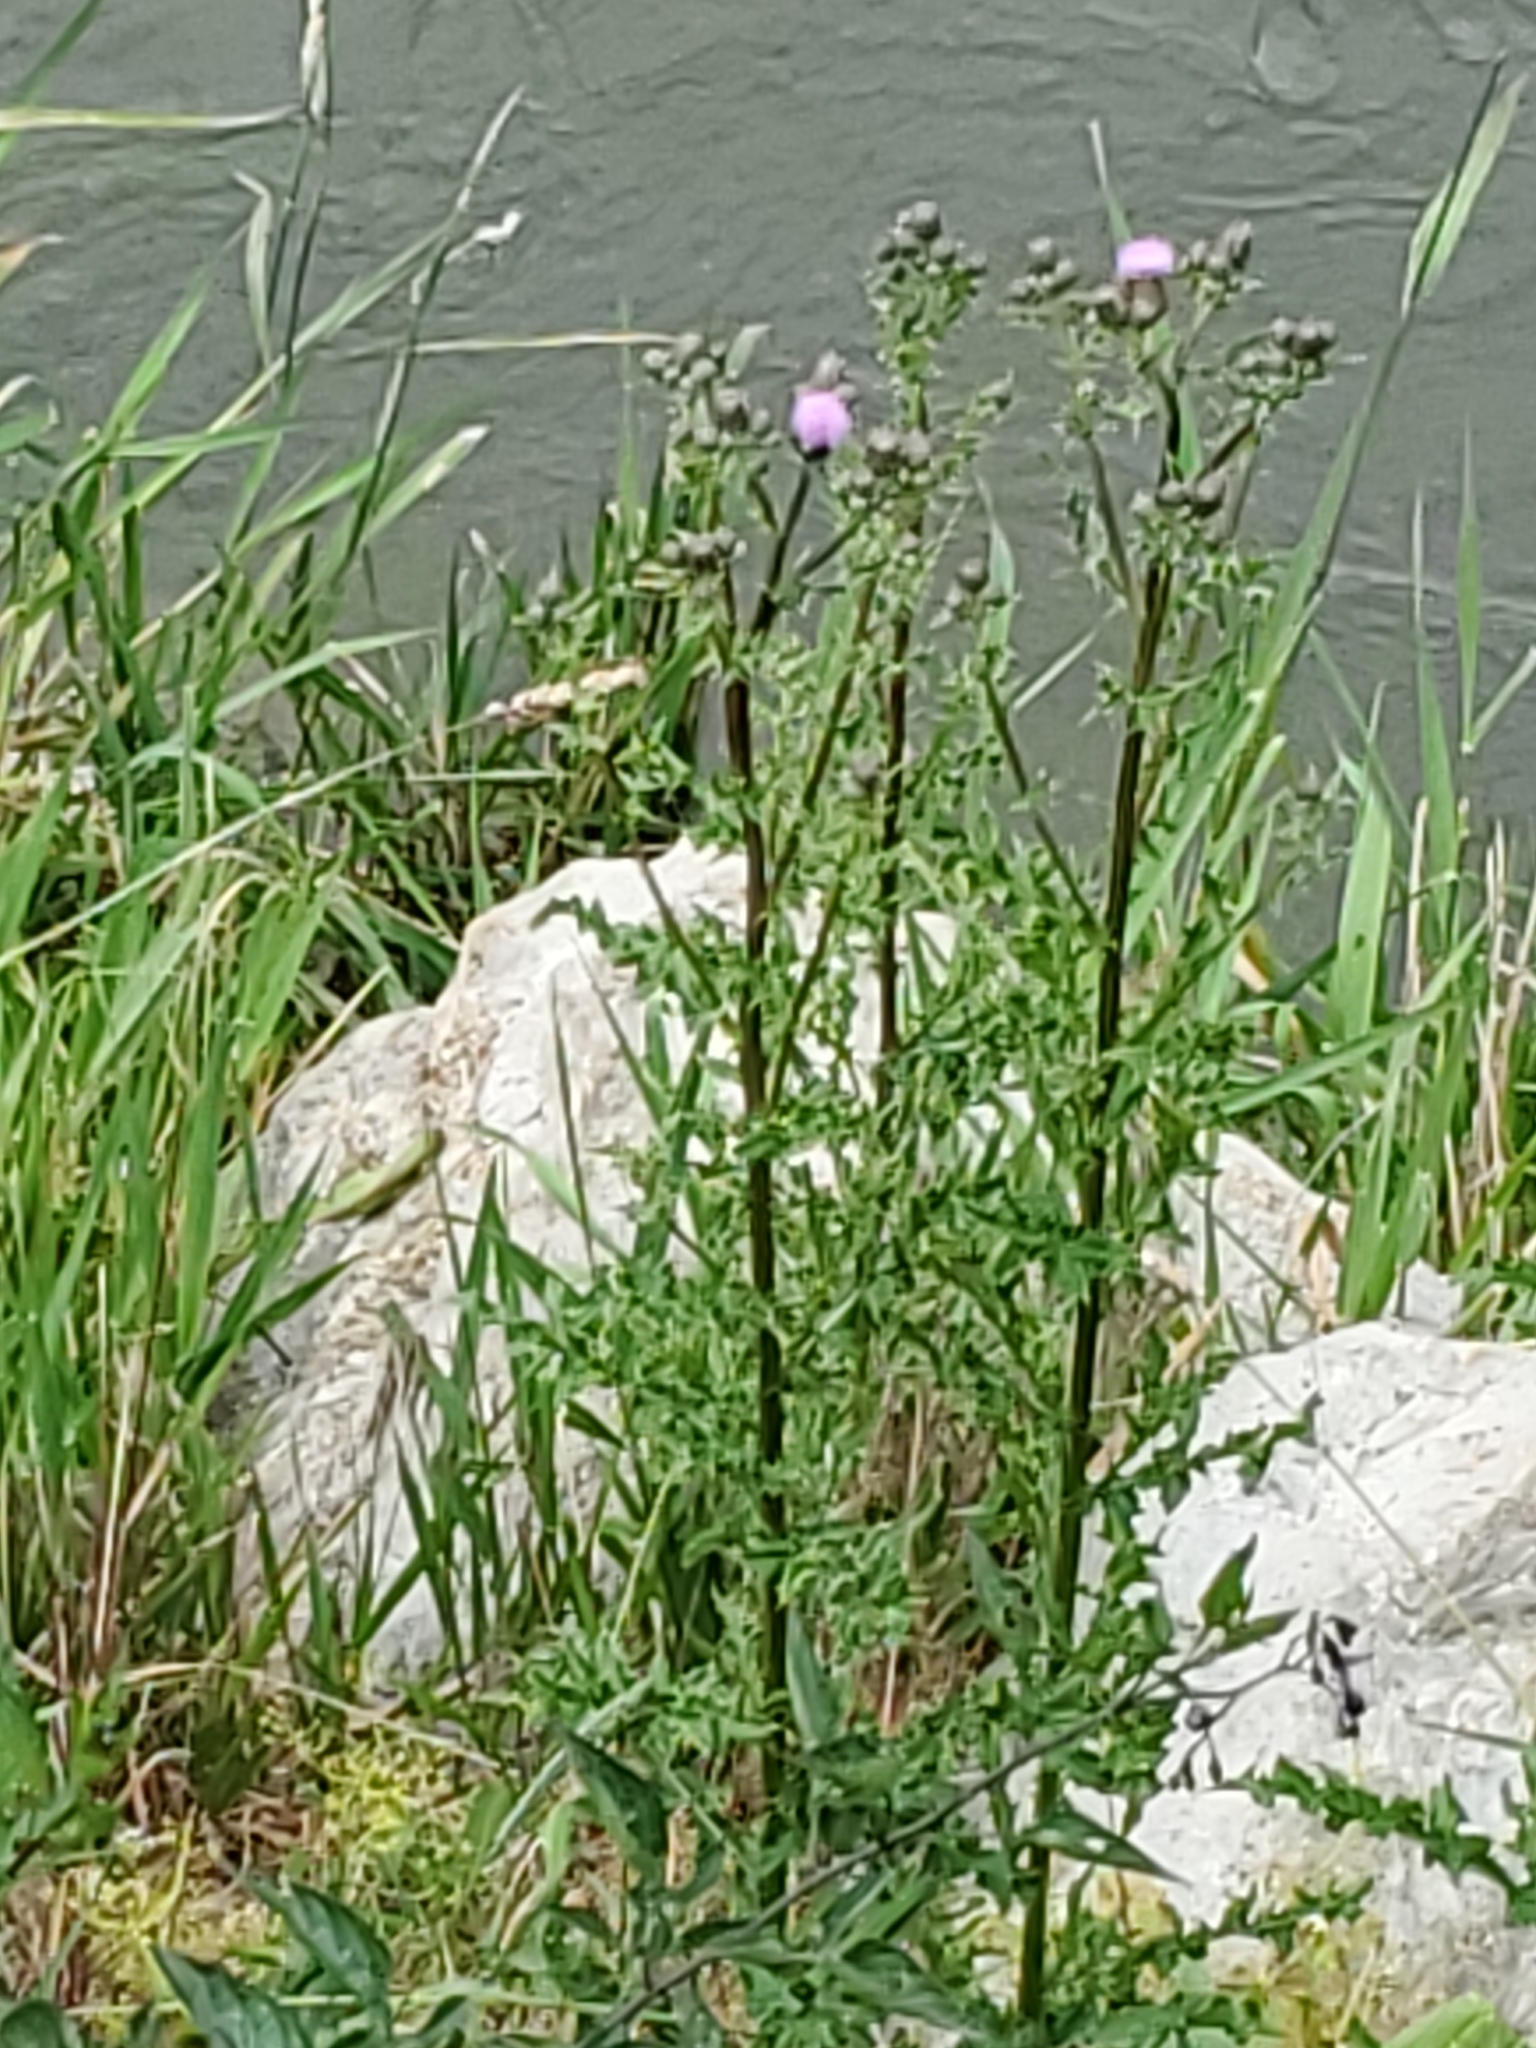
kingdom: Plantae
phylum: Tracheophyta
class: Magnoliopsida
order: Asterales
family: Asteraceae
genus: Cirsium
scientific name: Cirsium arvense
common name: Creeping thistle
